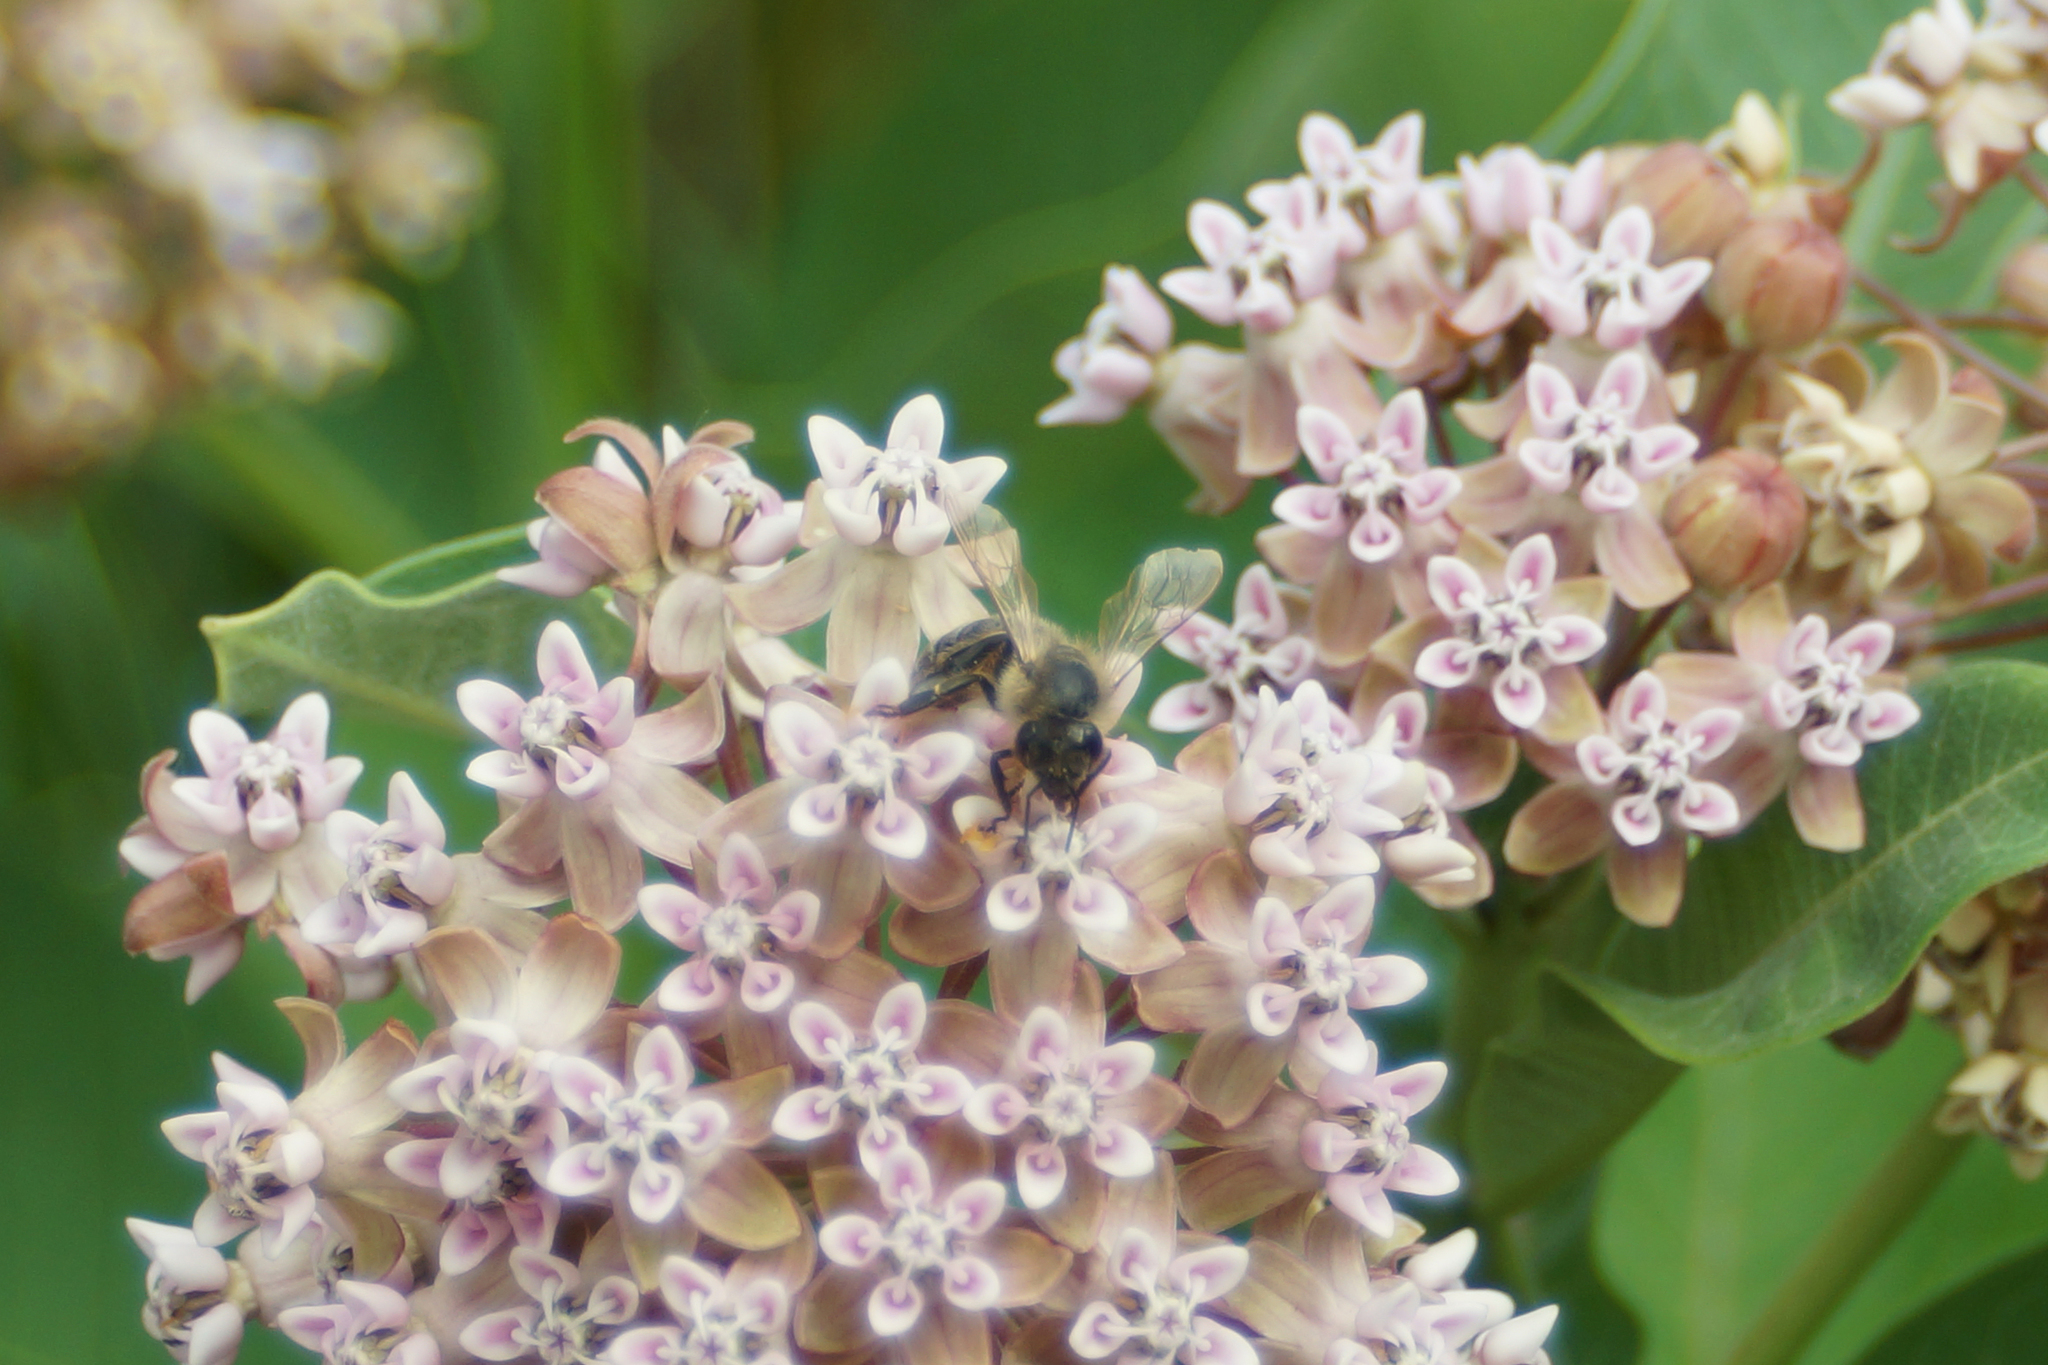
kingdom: Animalia
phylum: Arthropoda
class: Insecta
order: Hymenoptera
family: Apidae
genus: Apis
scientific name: Apis mellifera
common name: Honey bee
